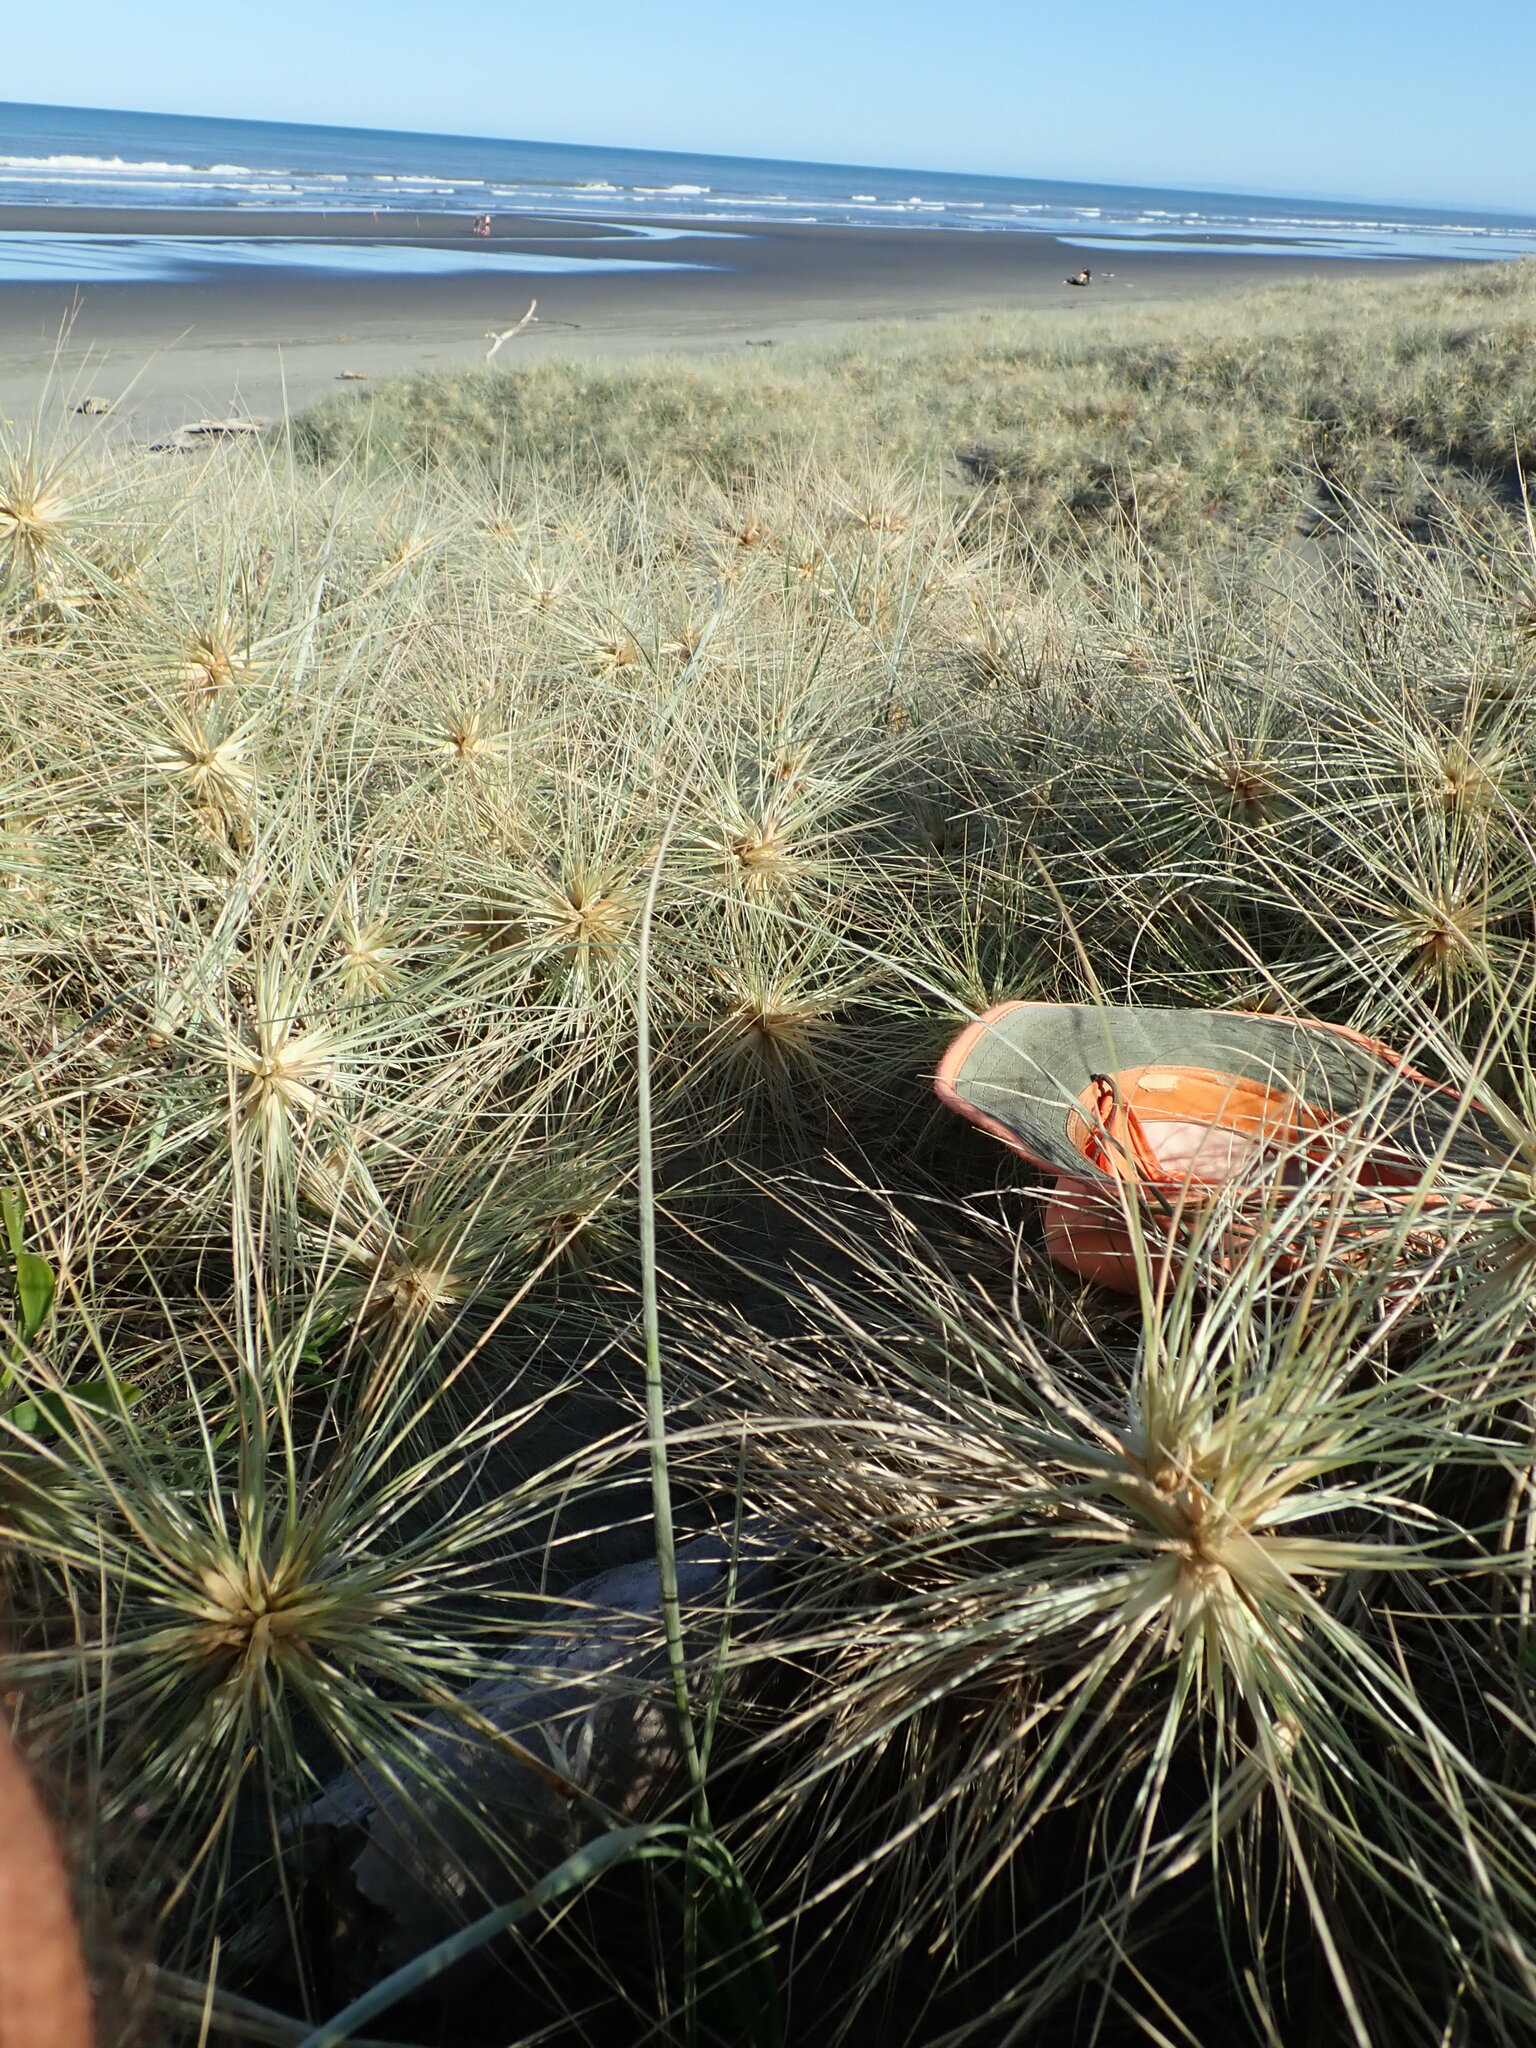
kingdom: Animalia
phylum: Arthropoda
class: Insecta
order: Hymenoptera
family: Formicidae
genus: Ochetellus
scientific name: Ochetellus glaber
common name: Ant
